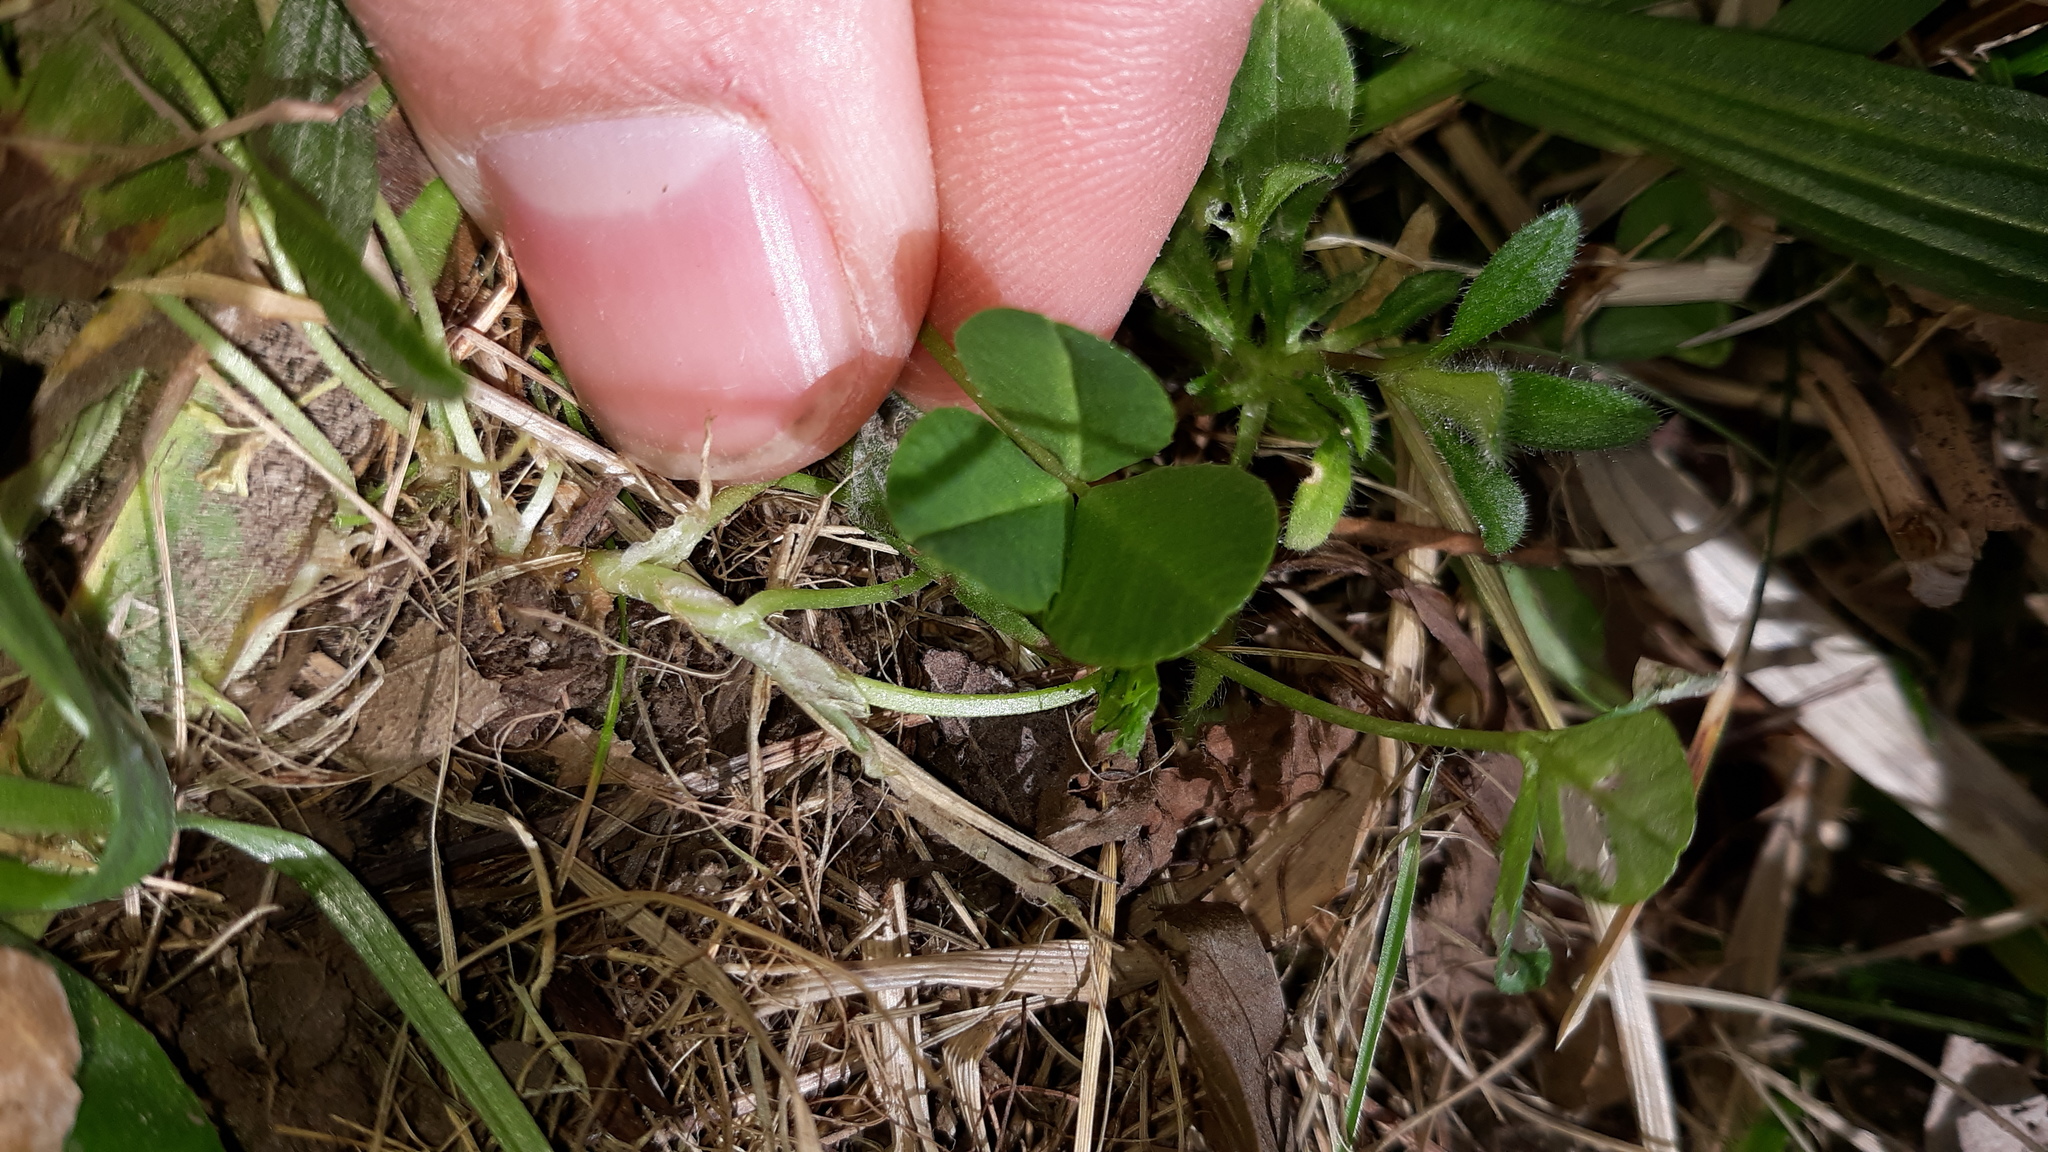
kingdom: Plantae
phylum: Tracheophyta
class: Magnoliopsida
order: Fabales
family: Fabaceae
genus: Trifolium
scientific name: Trifolium repens
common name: White clover
